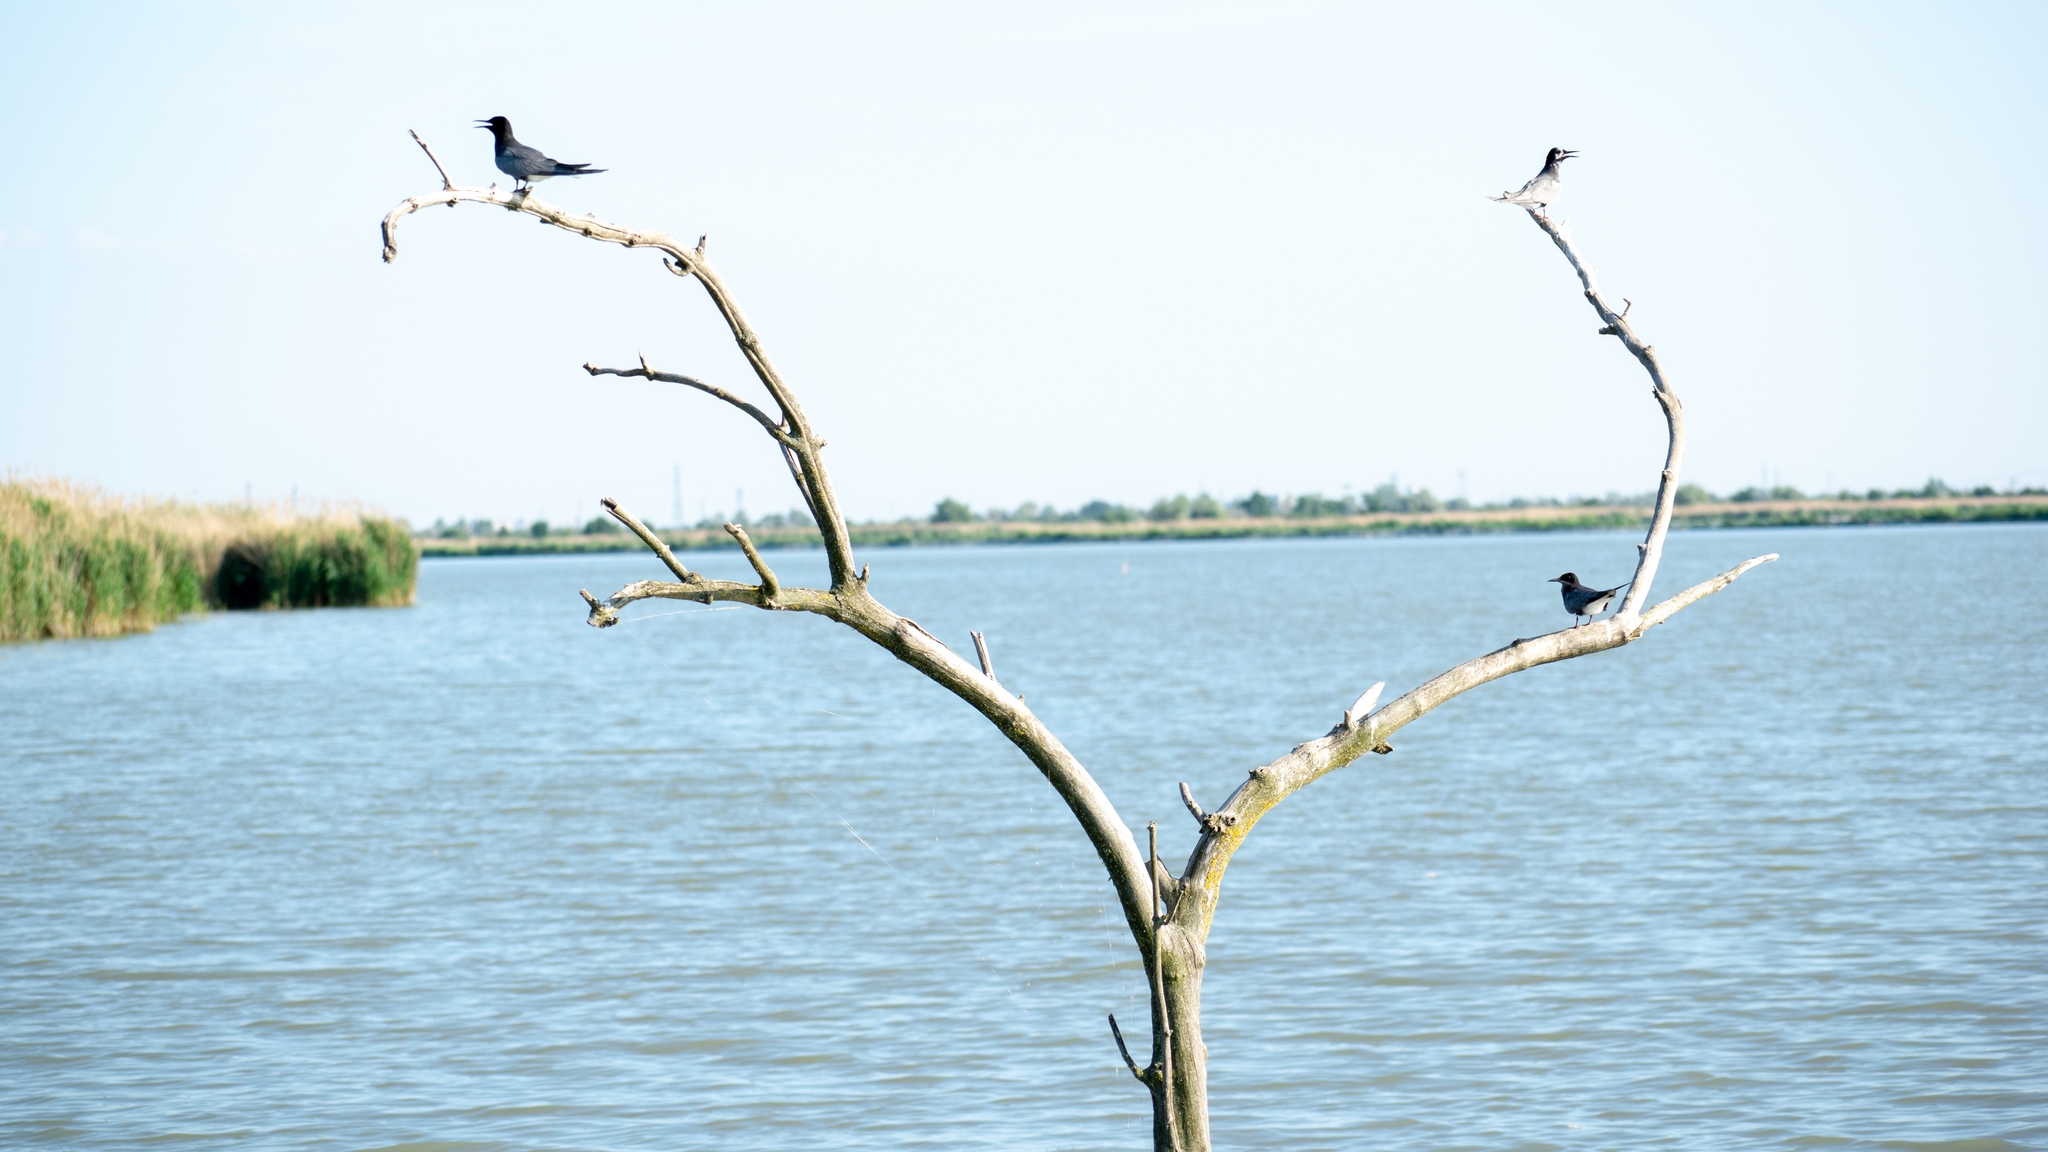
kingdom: Animalia
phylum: Chordata
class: Aves
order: Charadriiformes
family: Laridae
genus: Chlidonias
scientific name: Chlidonias niger
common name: Black tern
